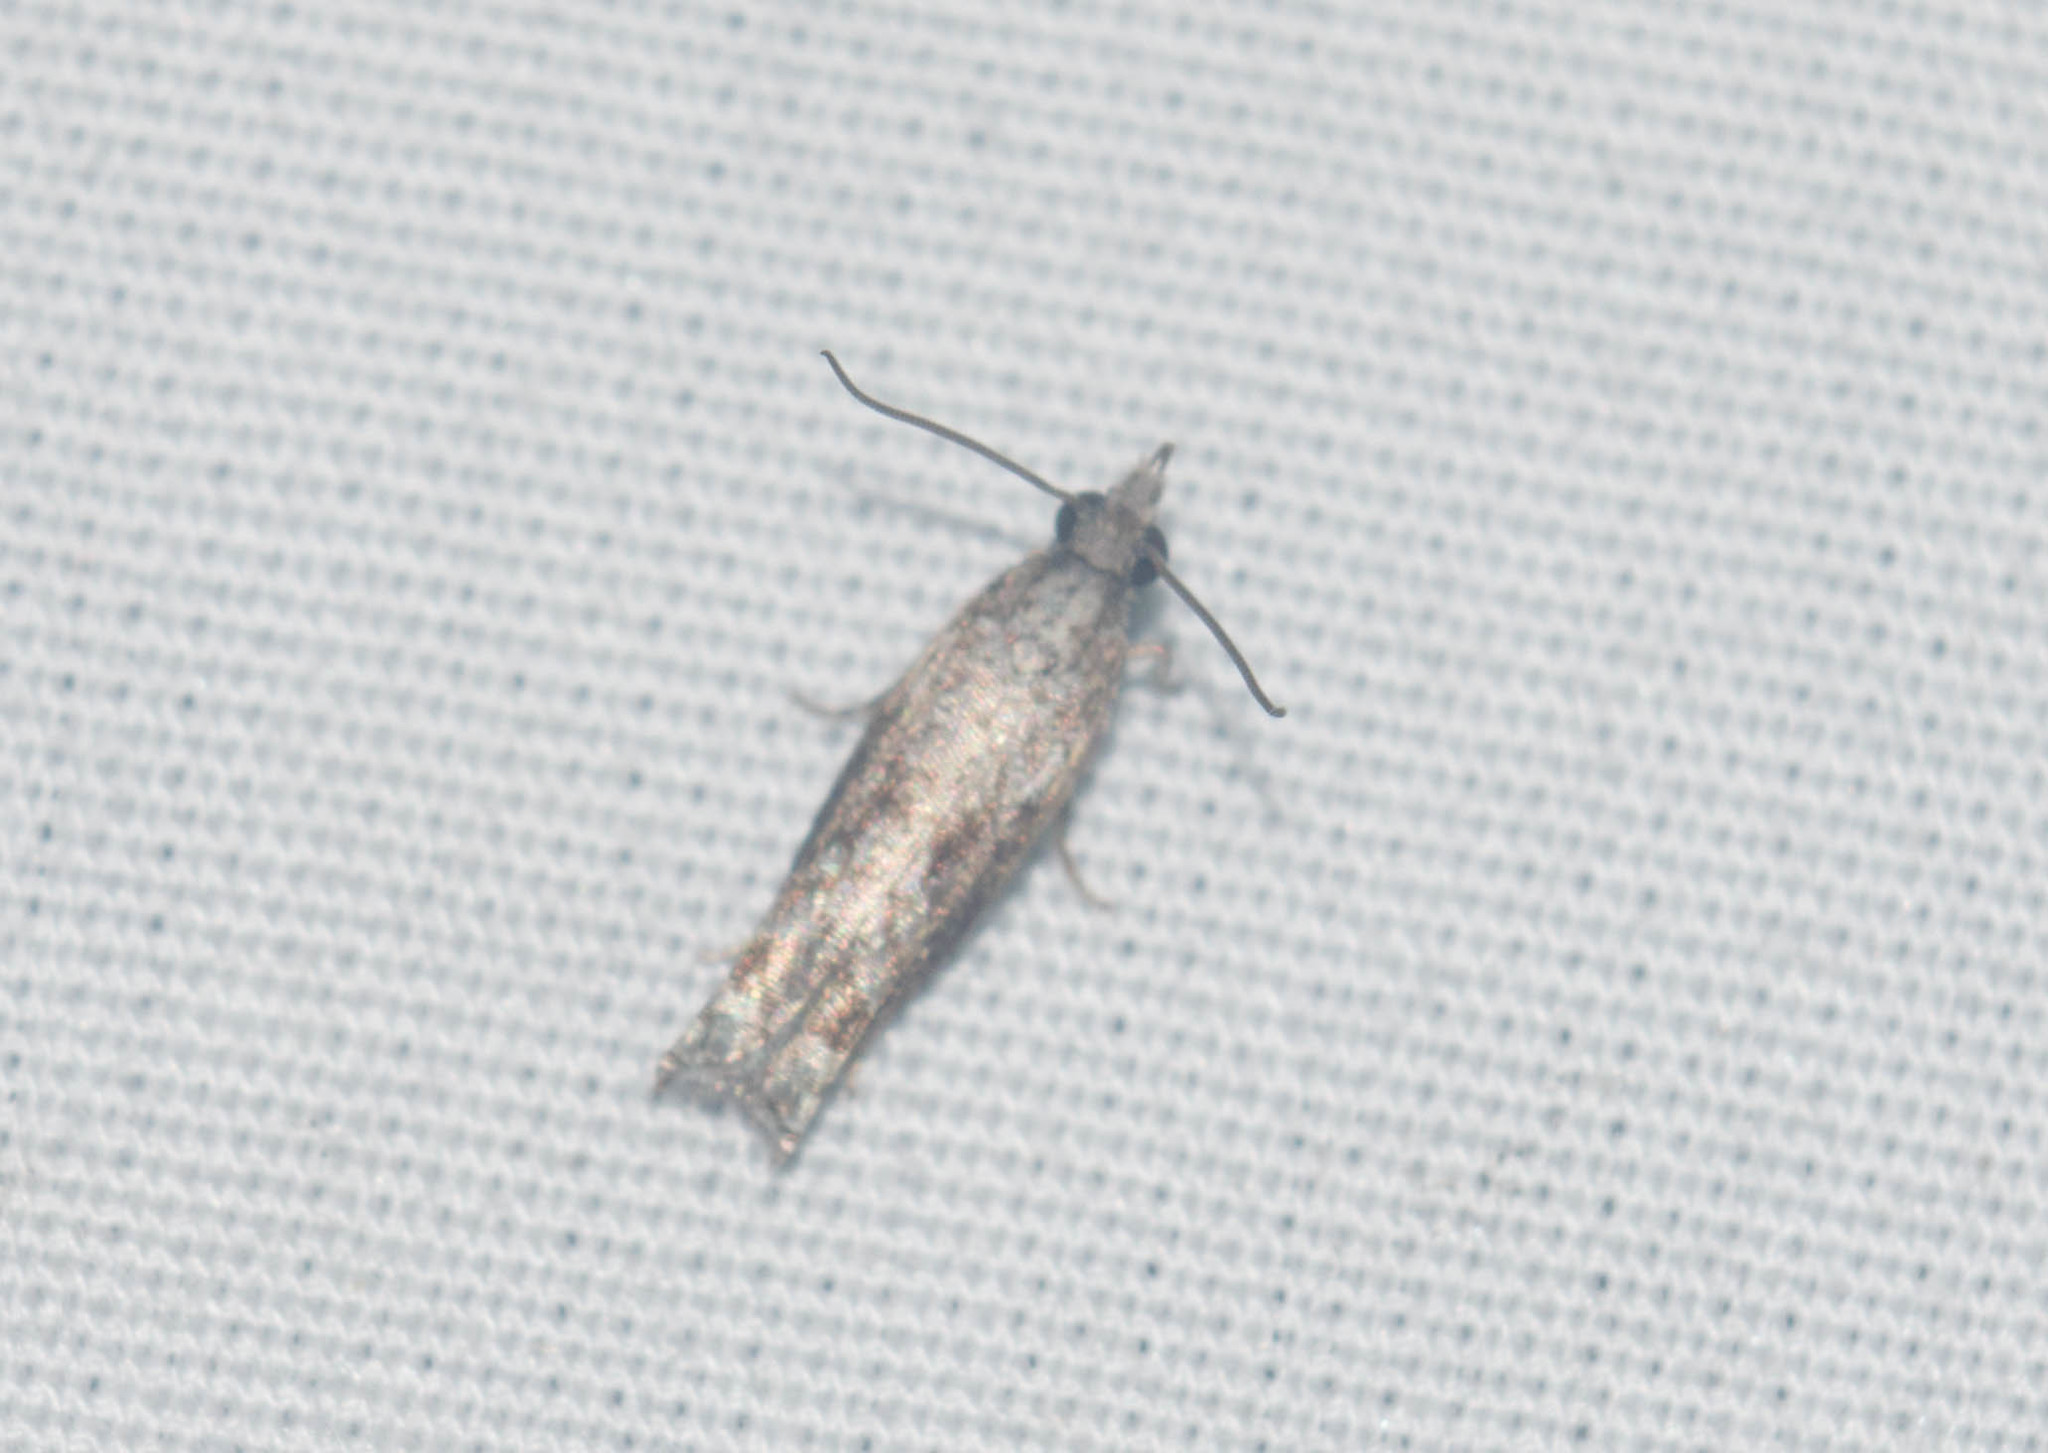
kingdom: Animalia
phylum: Arthropoda
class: Insecta
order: Lepidoptera
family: Tortricidae
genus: Eccoptocera
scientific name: Eccoptocera foetorivorans
